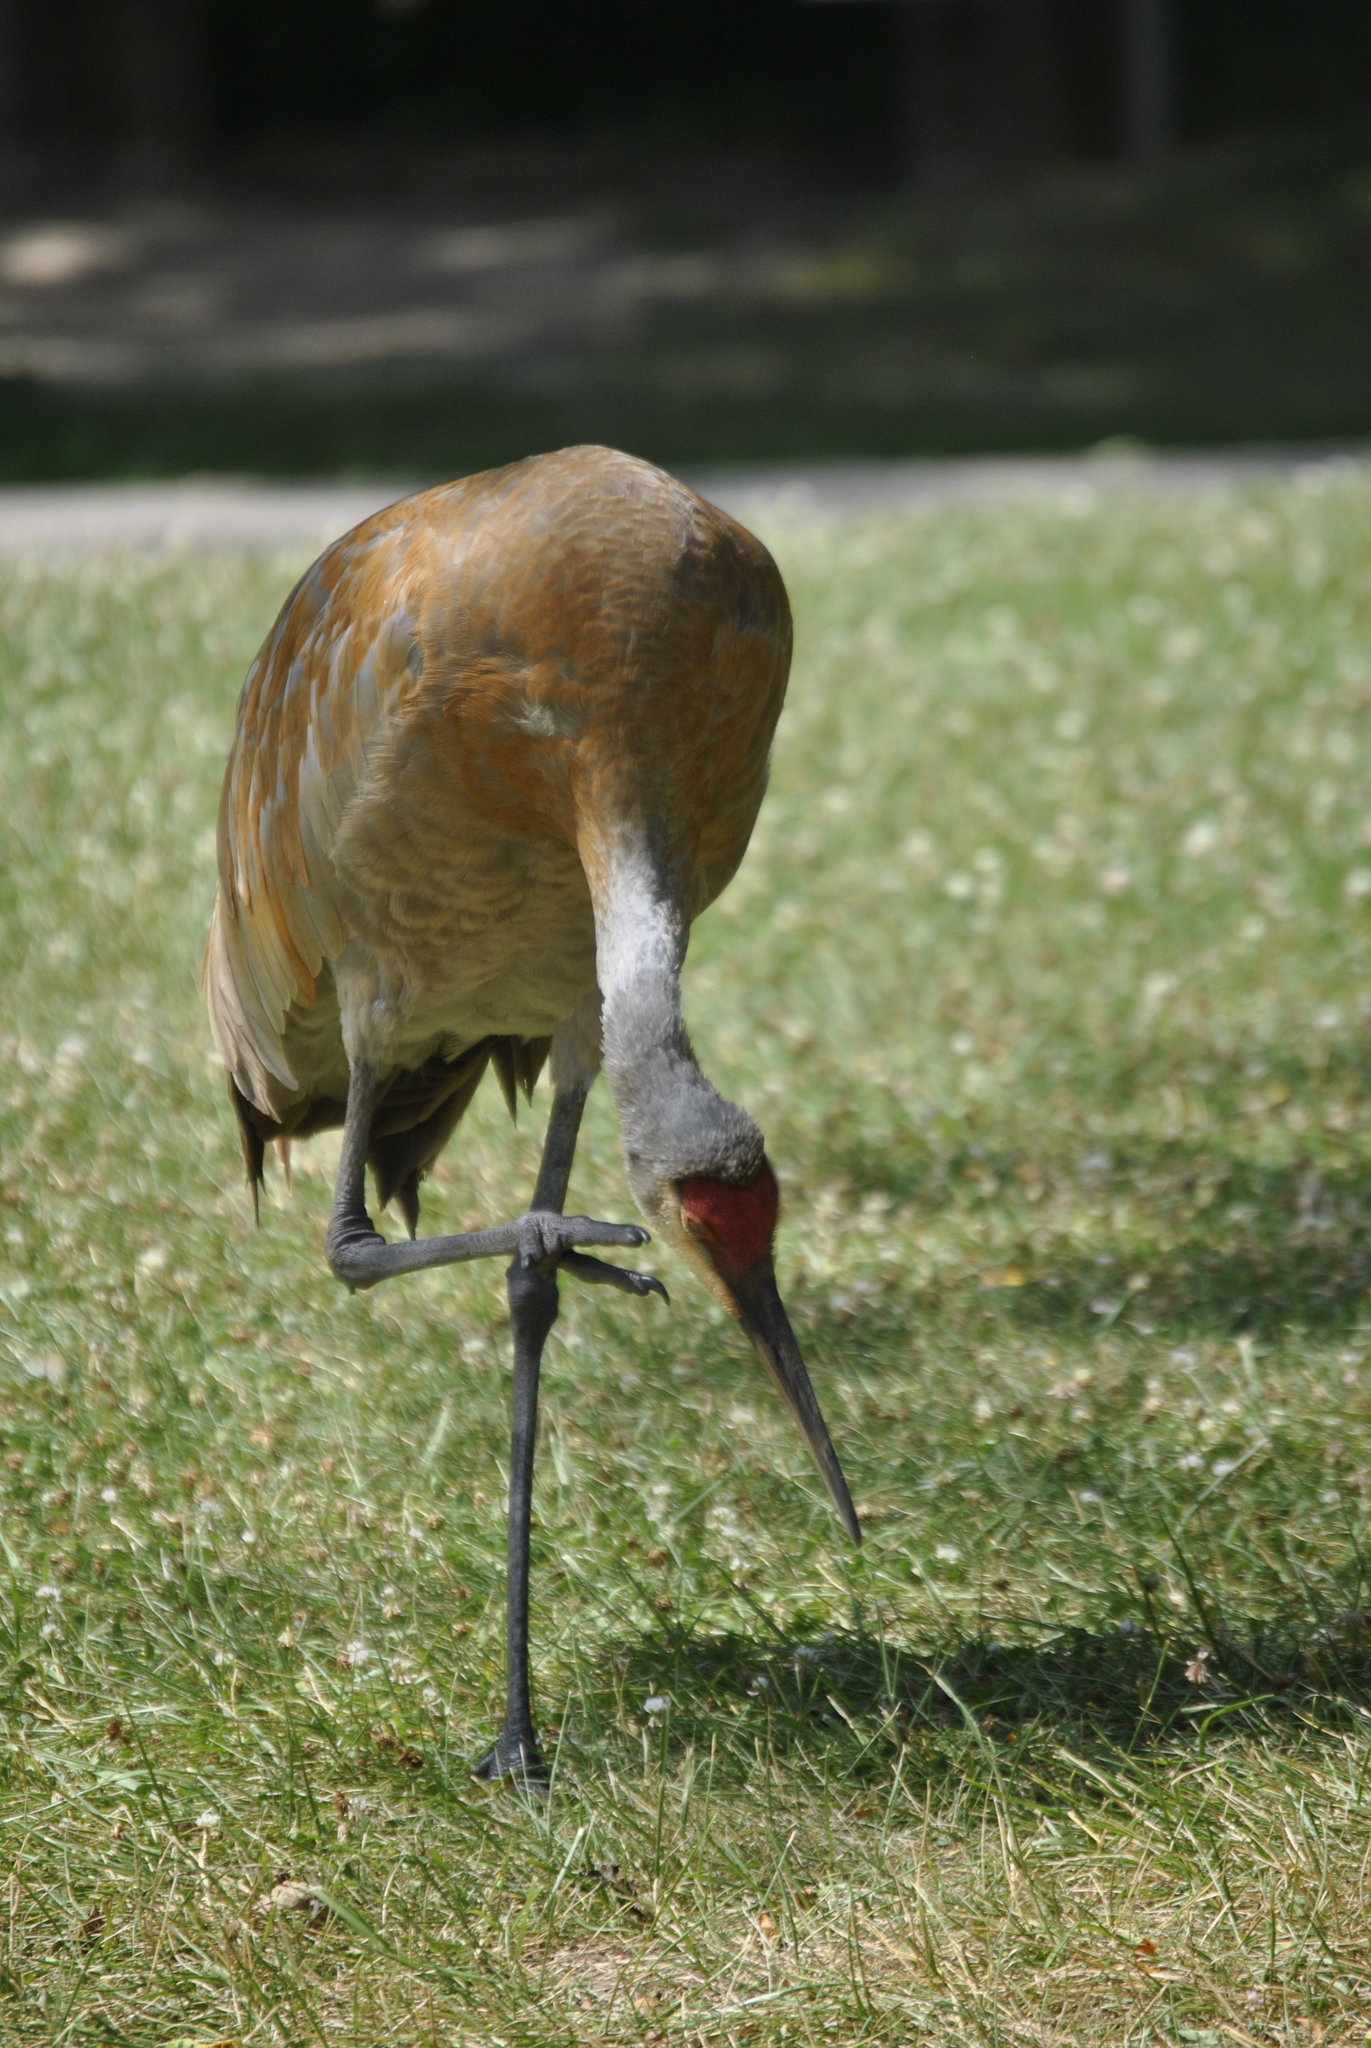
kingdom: Animalia
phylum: Chordata
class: Aves
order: Gruiformes
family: Gruidae
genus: Grus
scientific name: Grus canadensis
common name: Sandhill crane
